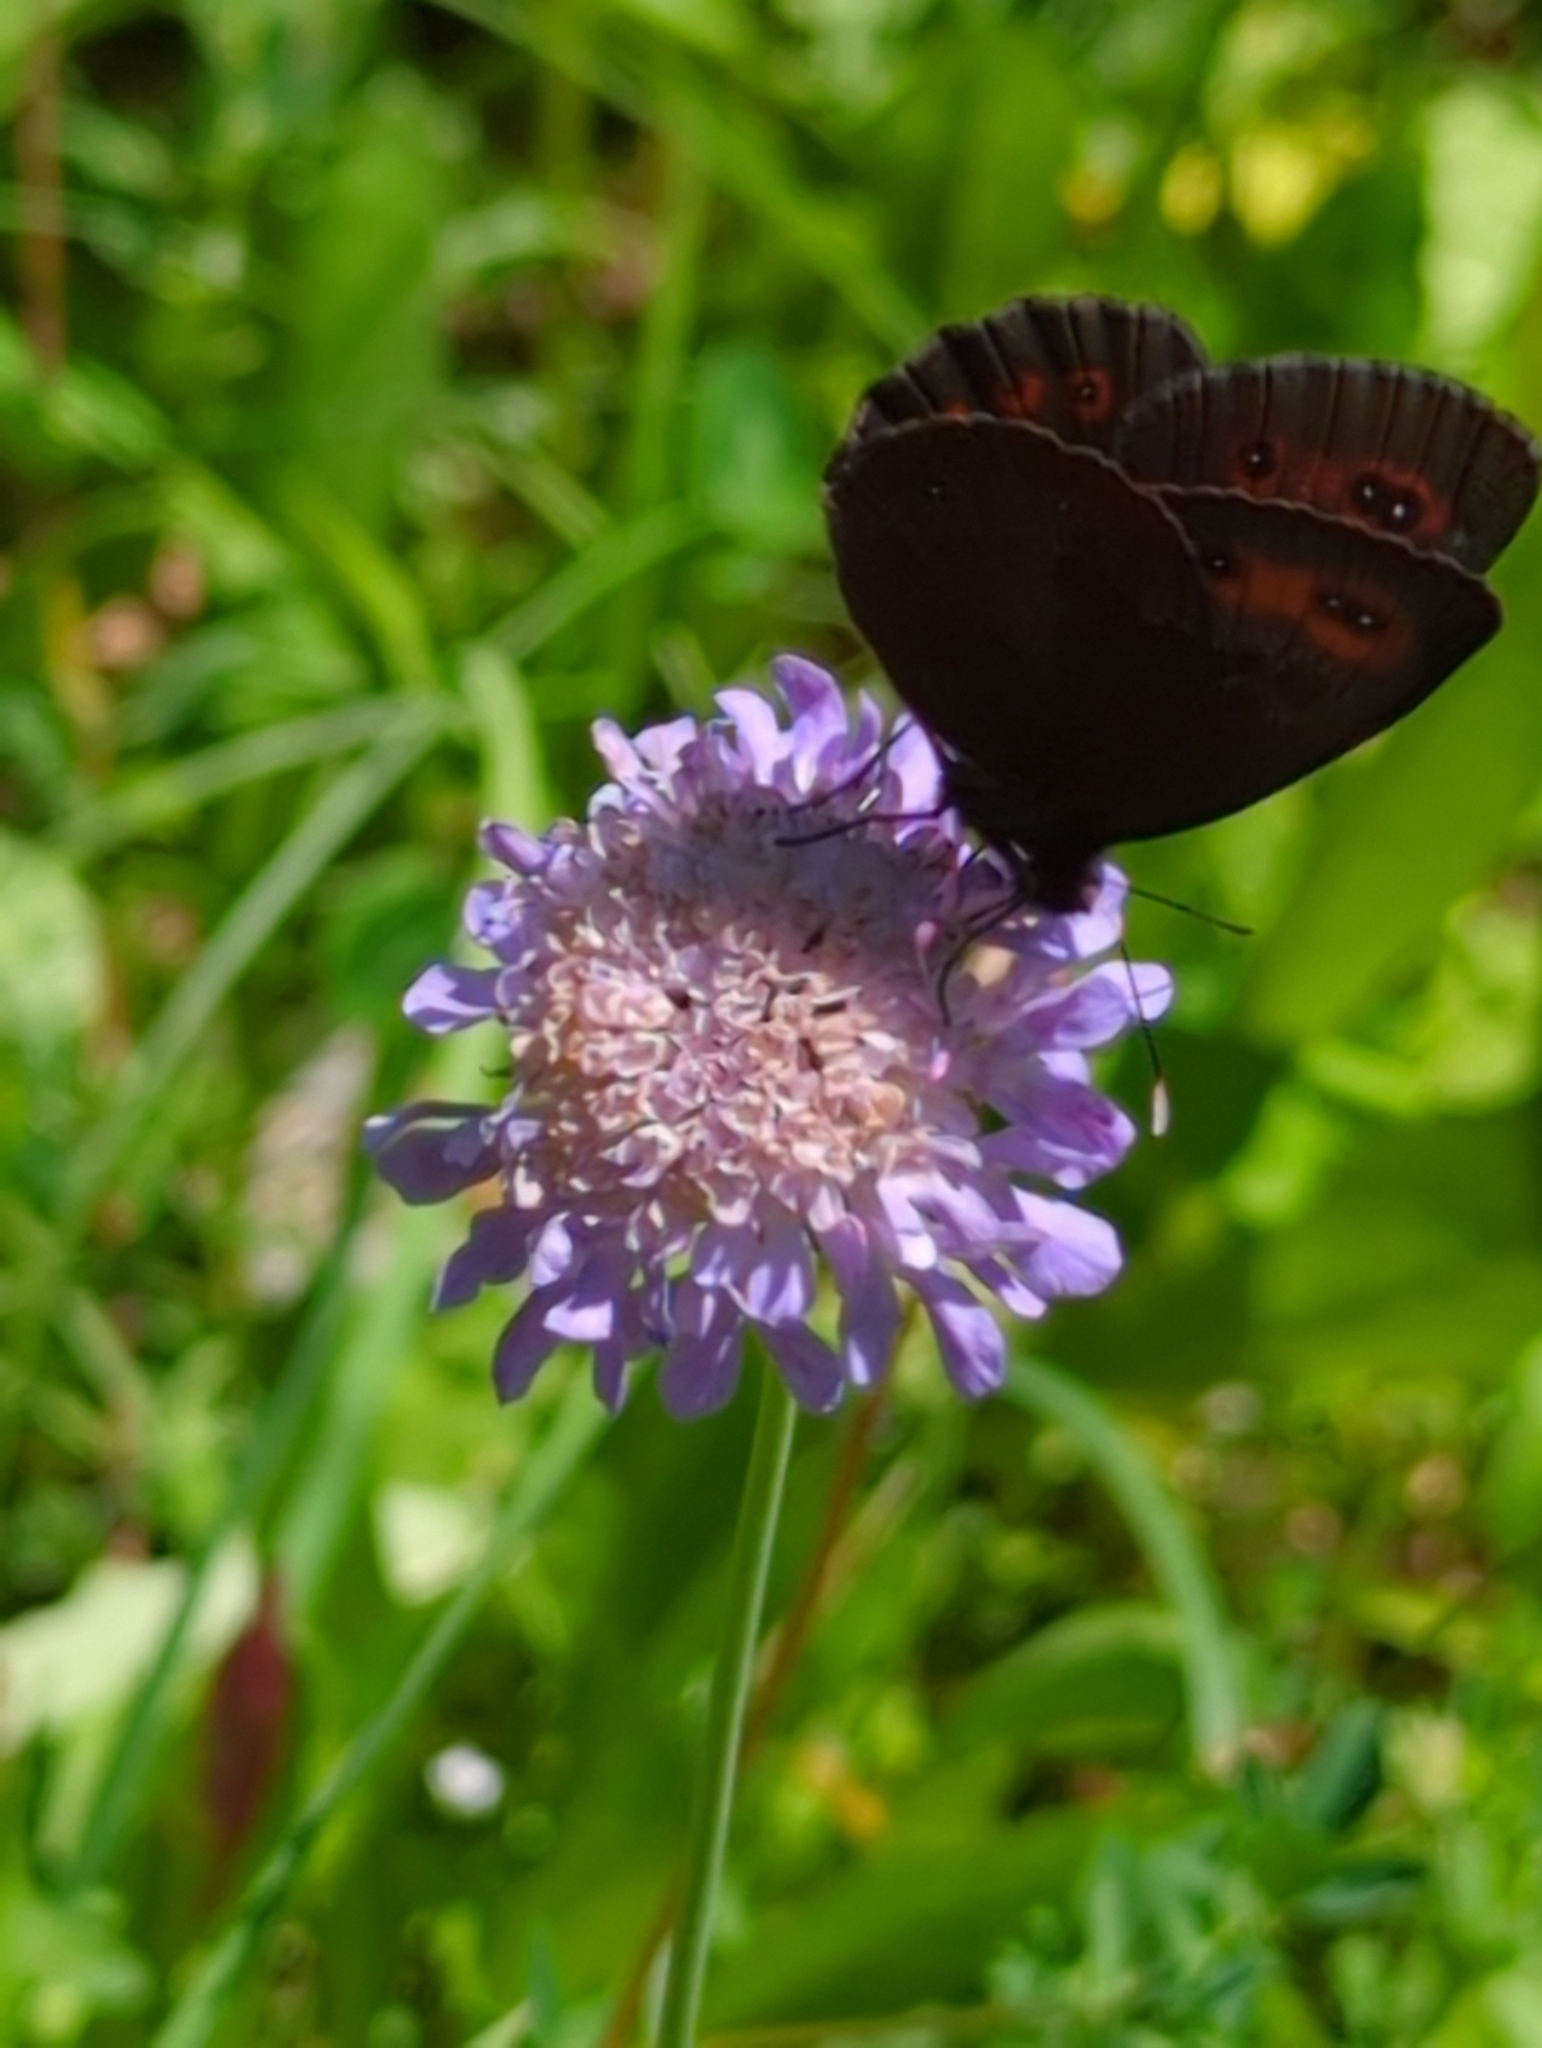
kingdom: Animalia
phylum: Arthropoda
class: Insecta
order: Lepidoptera
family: Nymphalidae
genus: Erebia
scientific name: Erebia aethiops
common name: Scotch argus
